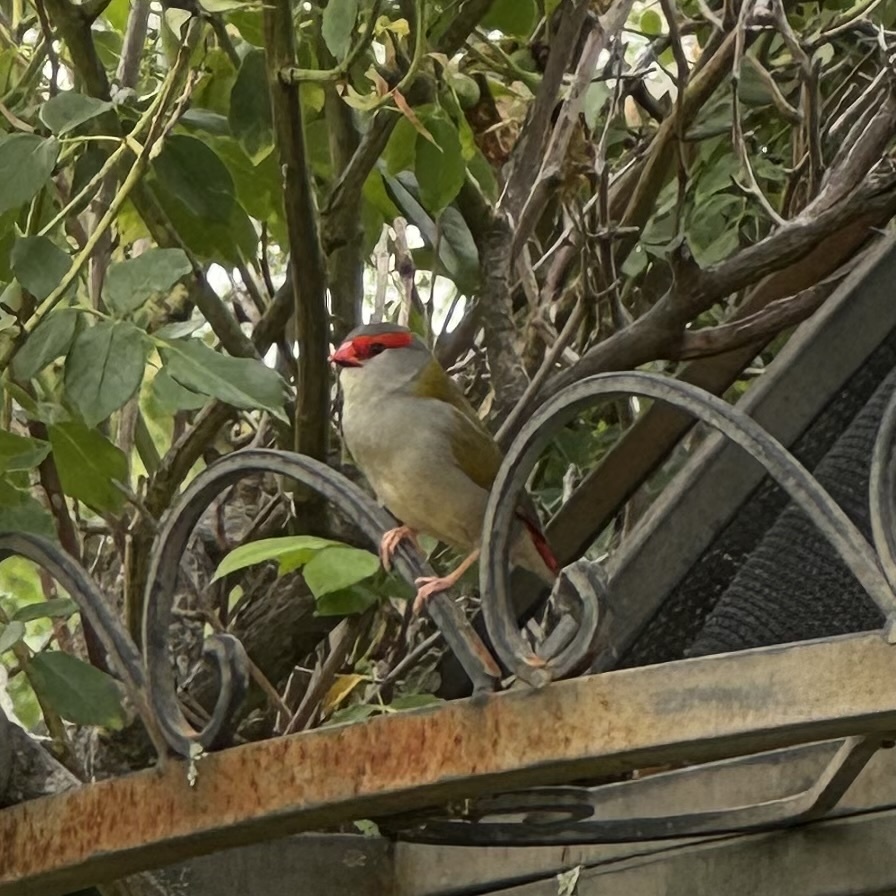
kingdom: Animalia
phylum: Chordata
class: Aves
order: Passeriformes
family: Estrildidae
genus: Neochmia
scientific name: Neochmia temporalis
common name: Red-browed finch
